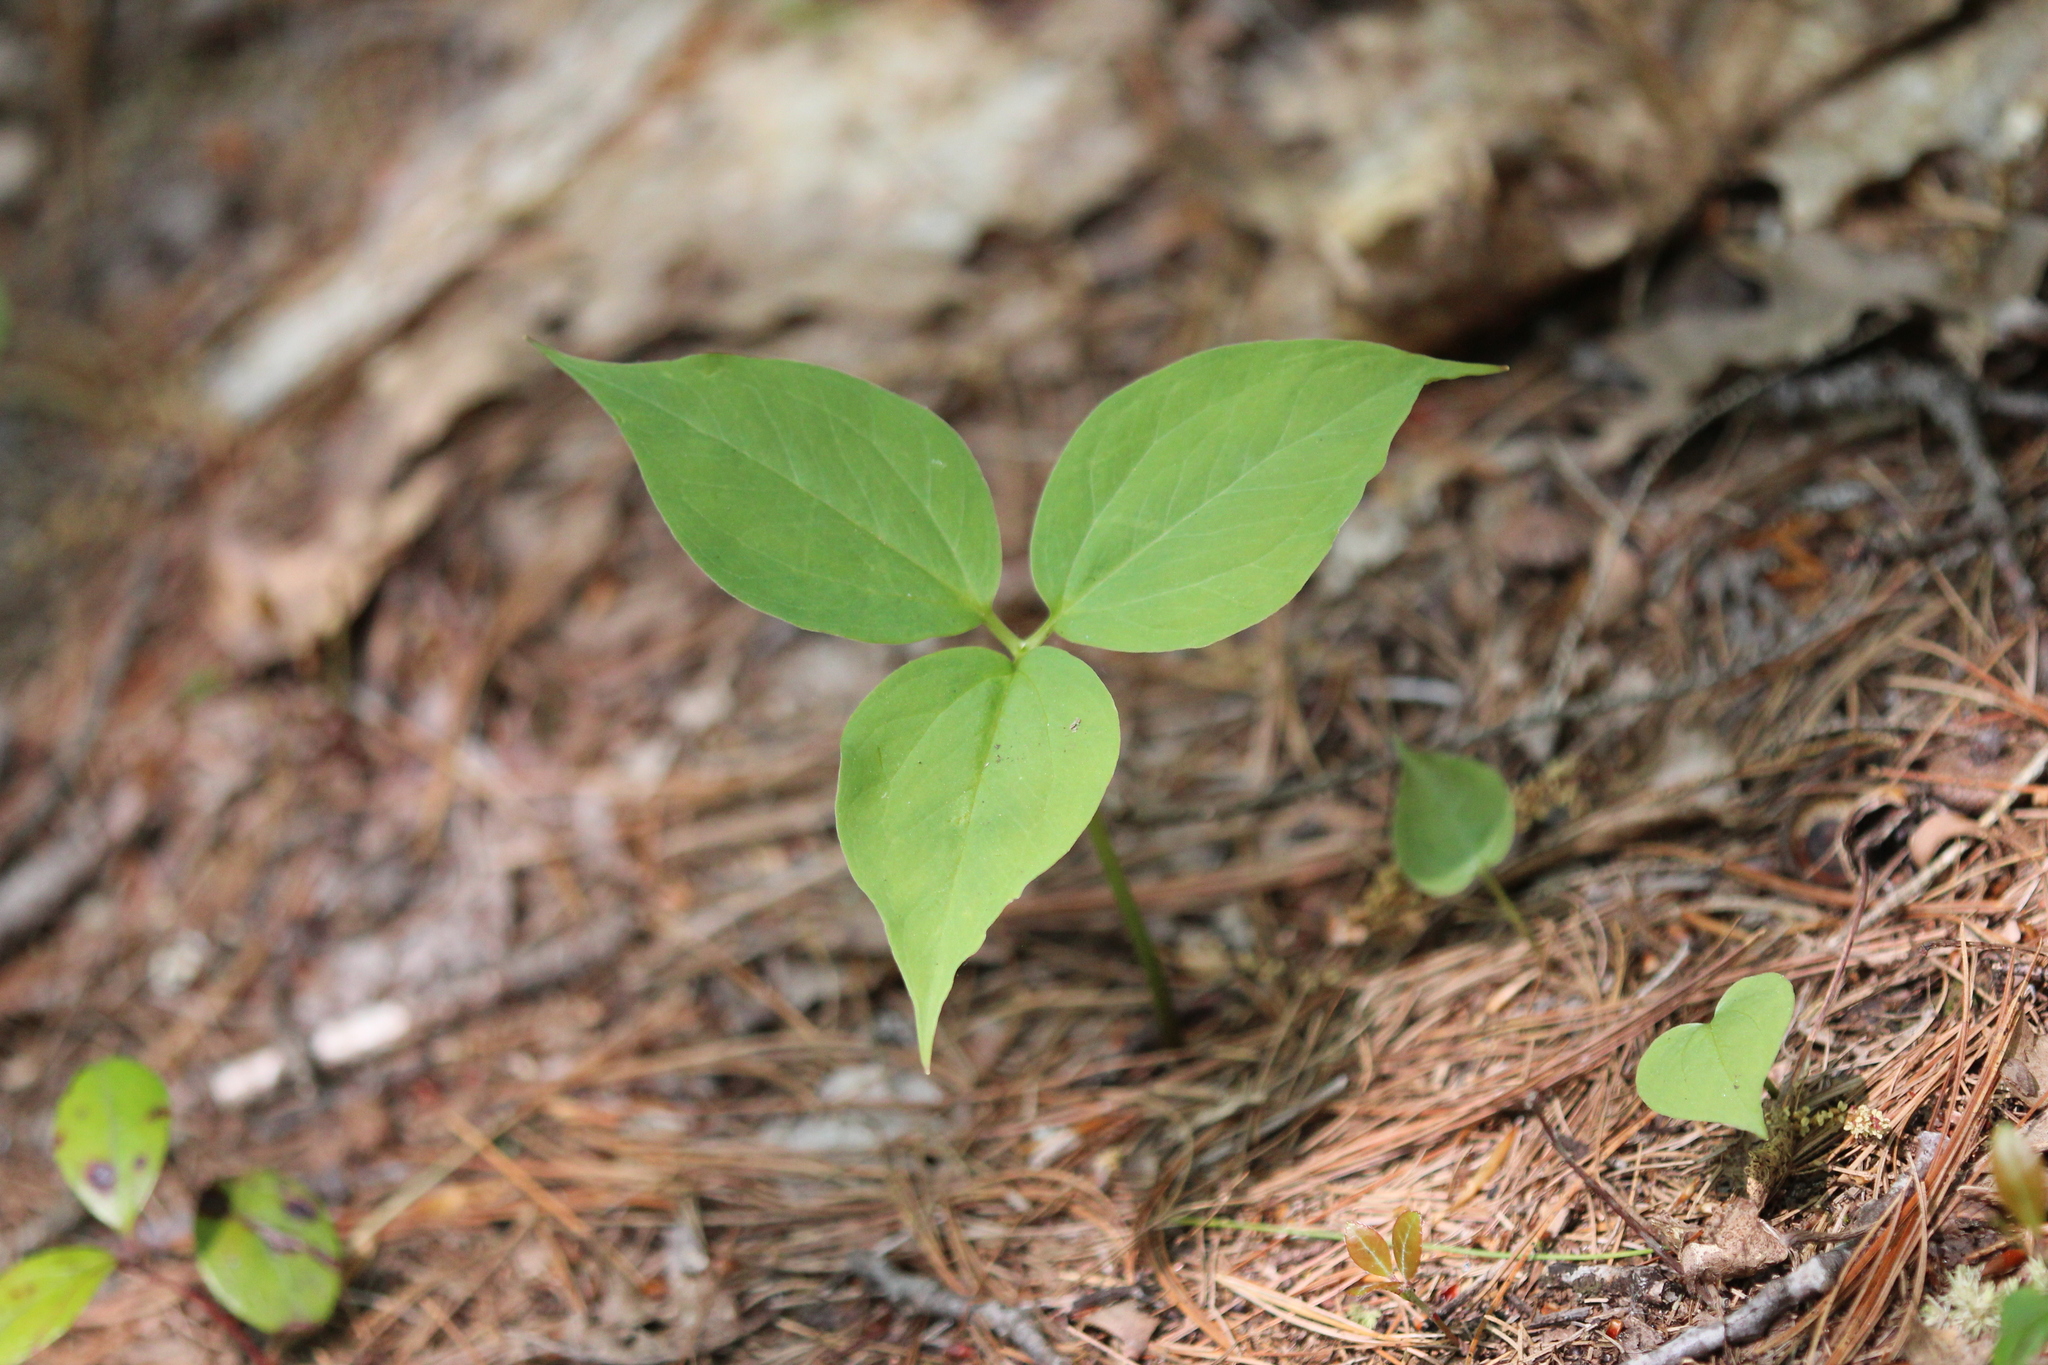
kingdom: Plantae
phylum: Tracheophyta
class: Liliopsida
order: Liliales
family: Melanthiaceae
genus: Trillium
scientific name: Trillium undulatum
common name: Paint trillium
